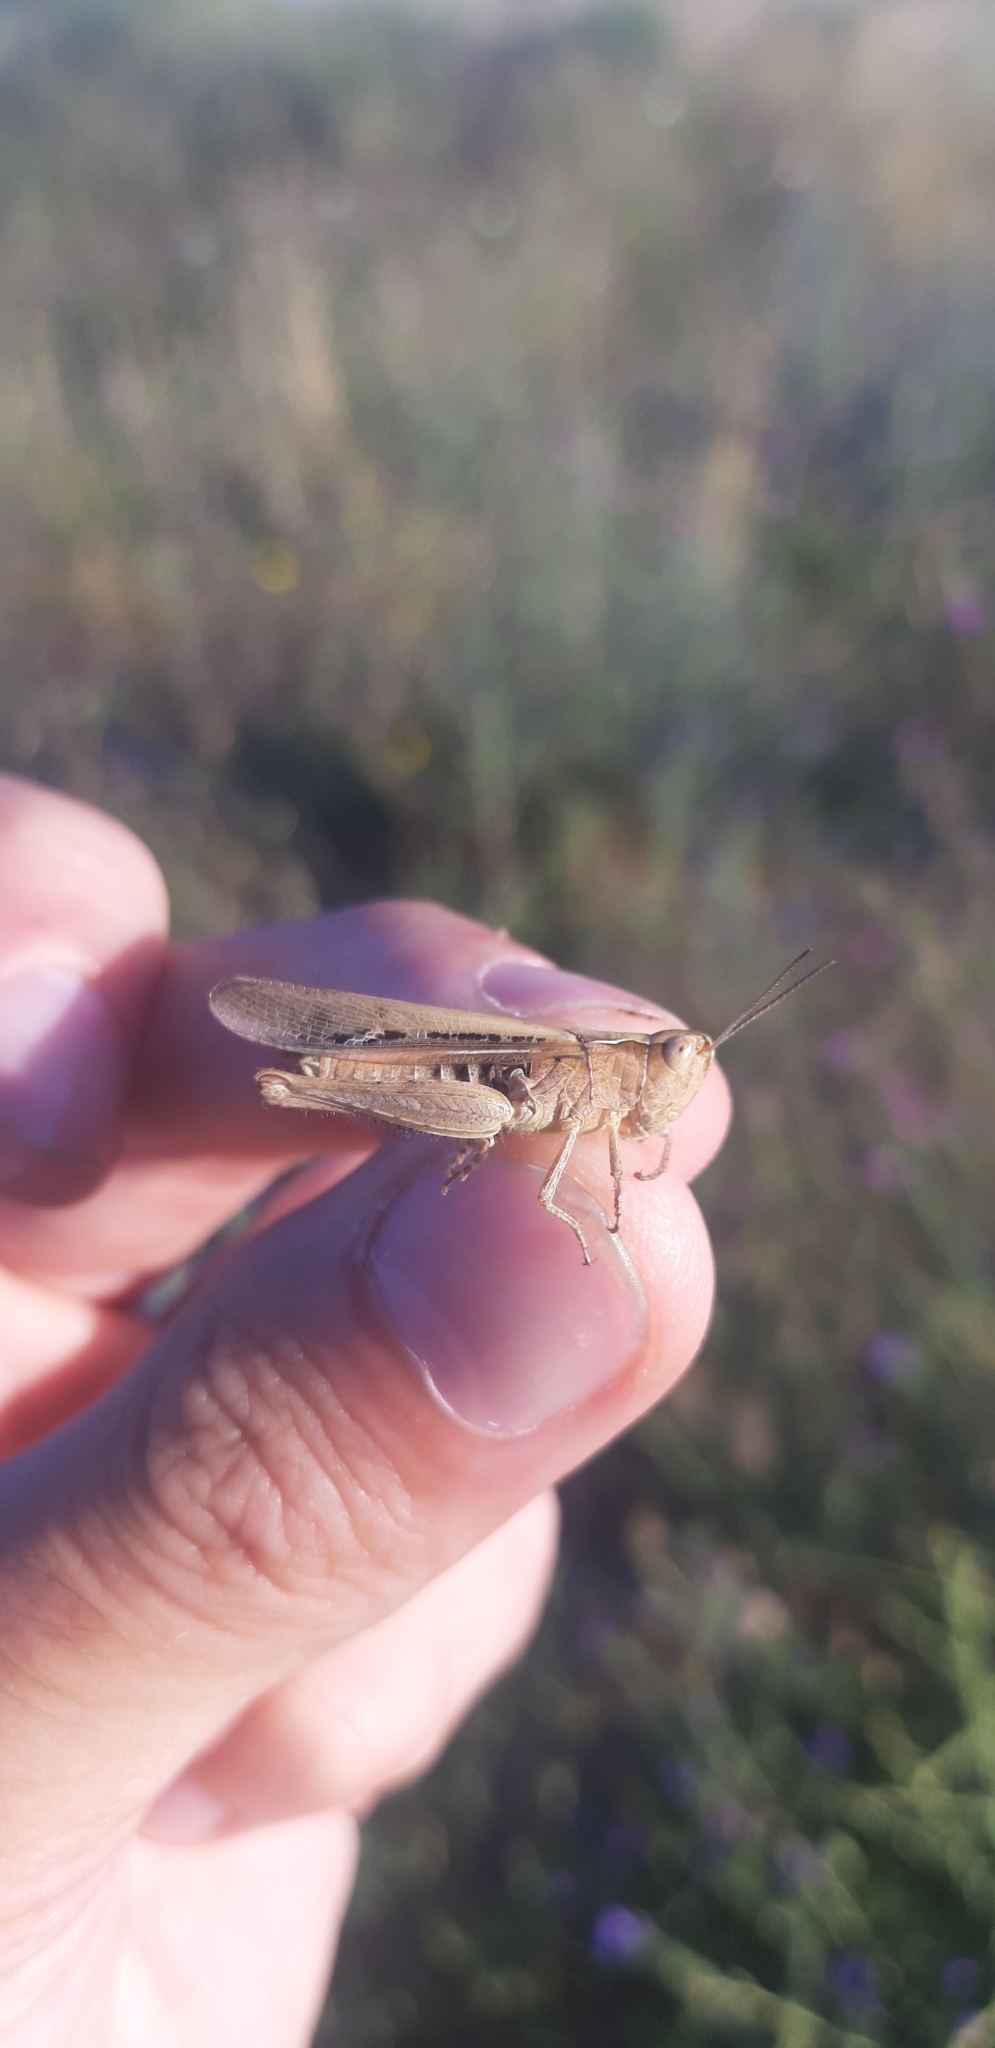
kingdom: Animalia
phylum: Arthropoda
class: Insecta
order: Orthoptera
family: Acrididae
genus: Chorthippus
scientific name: Chorthippus brunneus
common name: Field grasshopper
